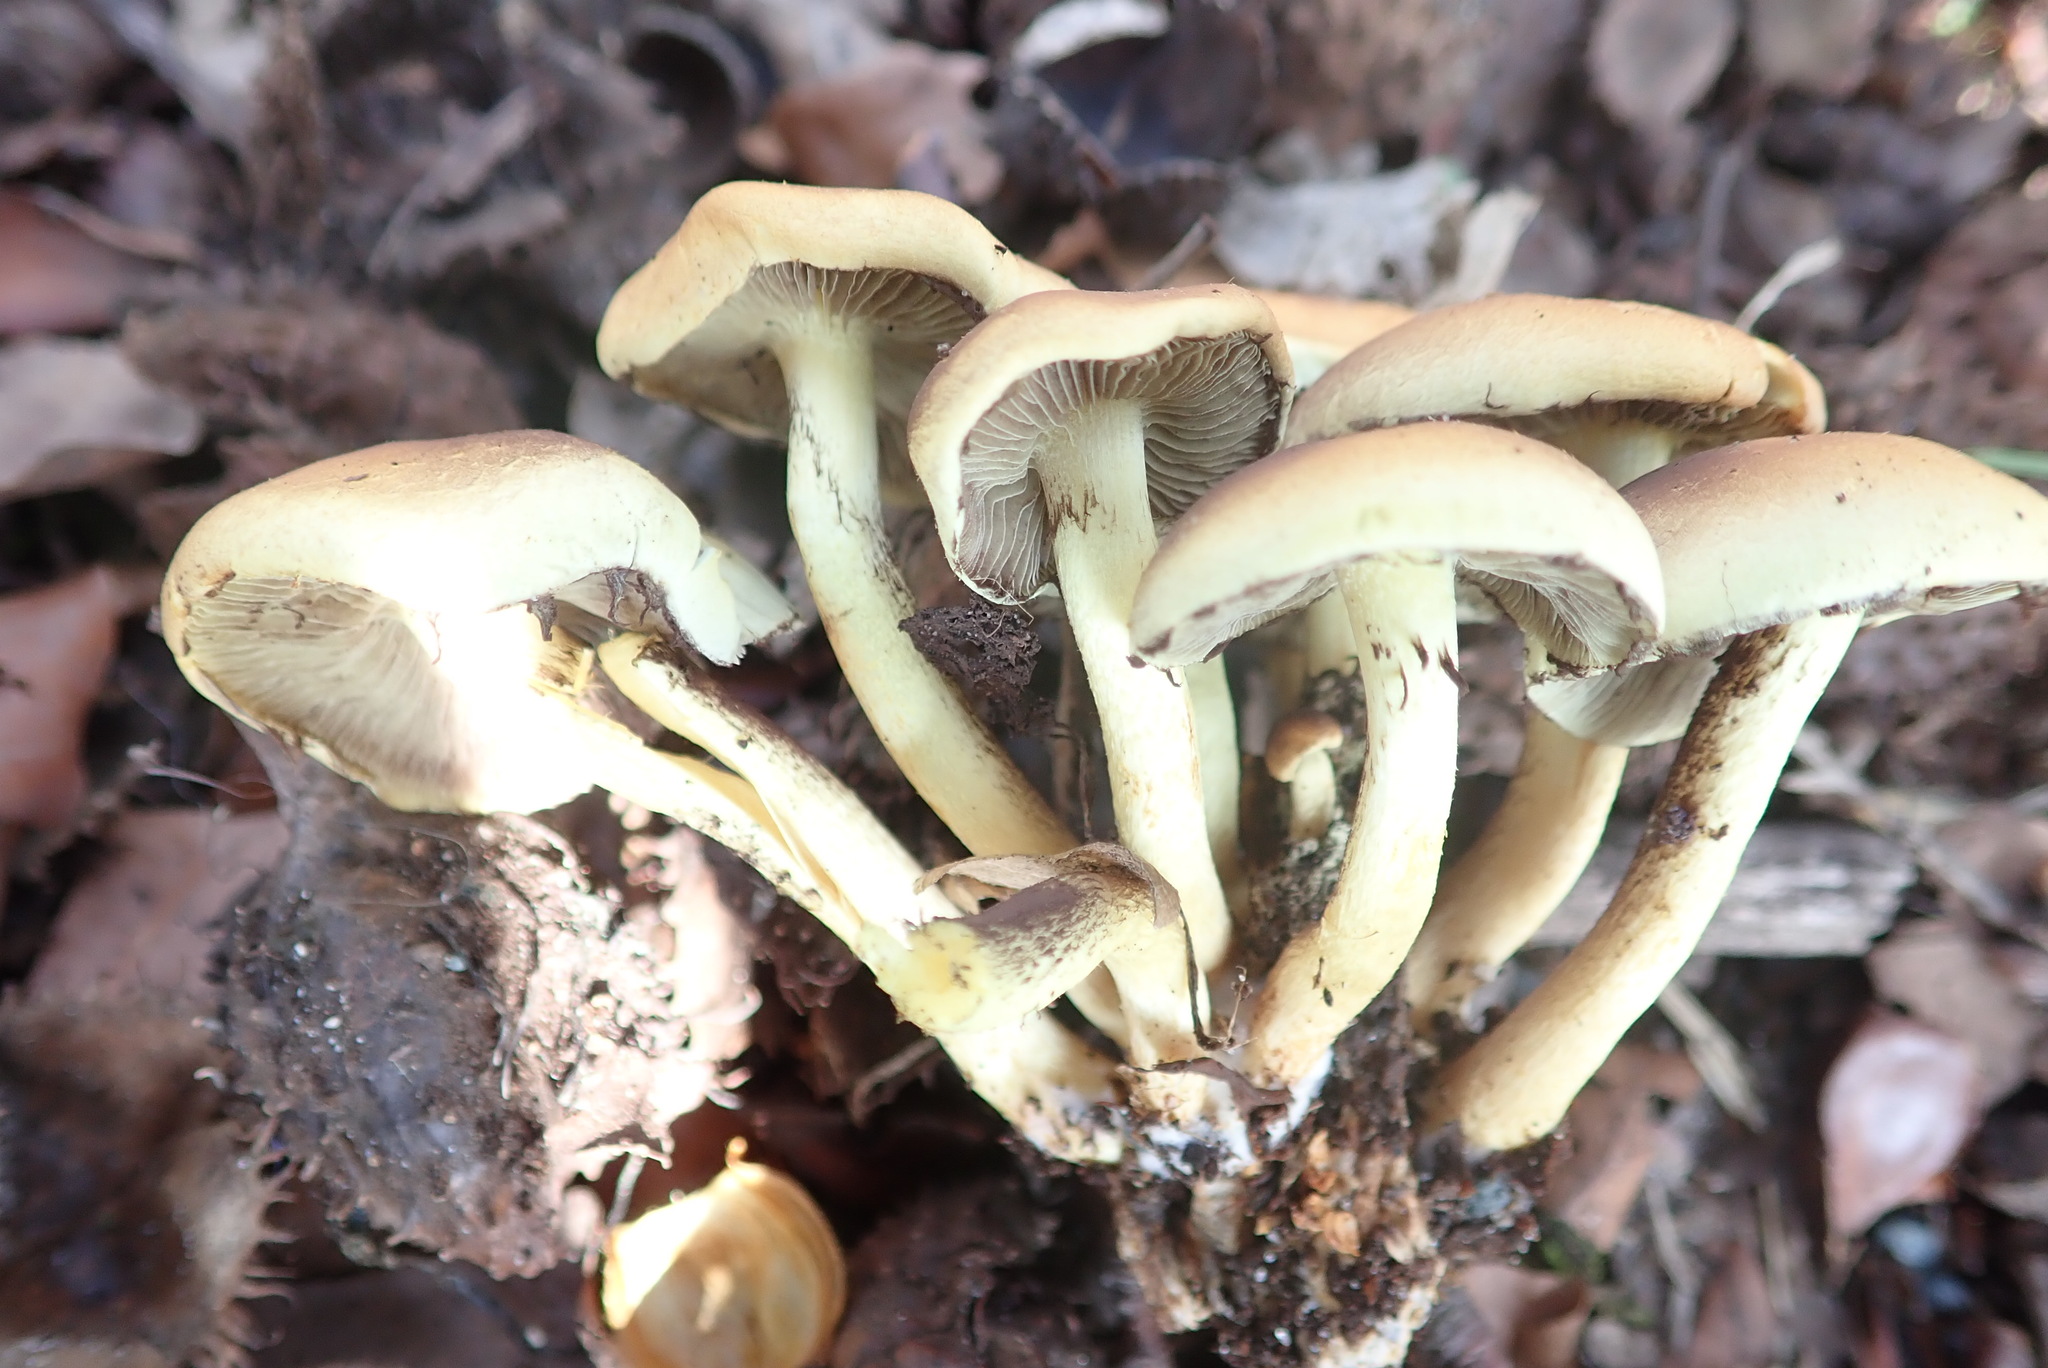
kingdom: Fungi
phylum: Basidiomycota
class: Agaricomycetes
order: Agaricales
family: Strophariaceae
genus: Hypholoma
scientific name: Hypholoma fasciculare
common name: Sulphur tuft
